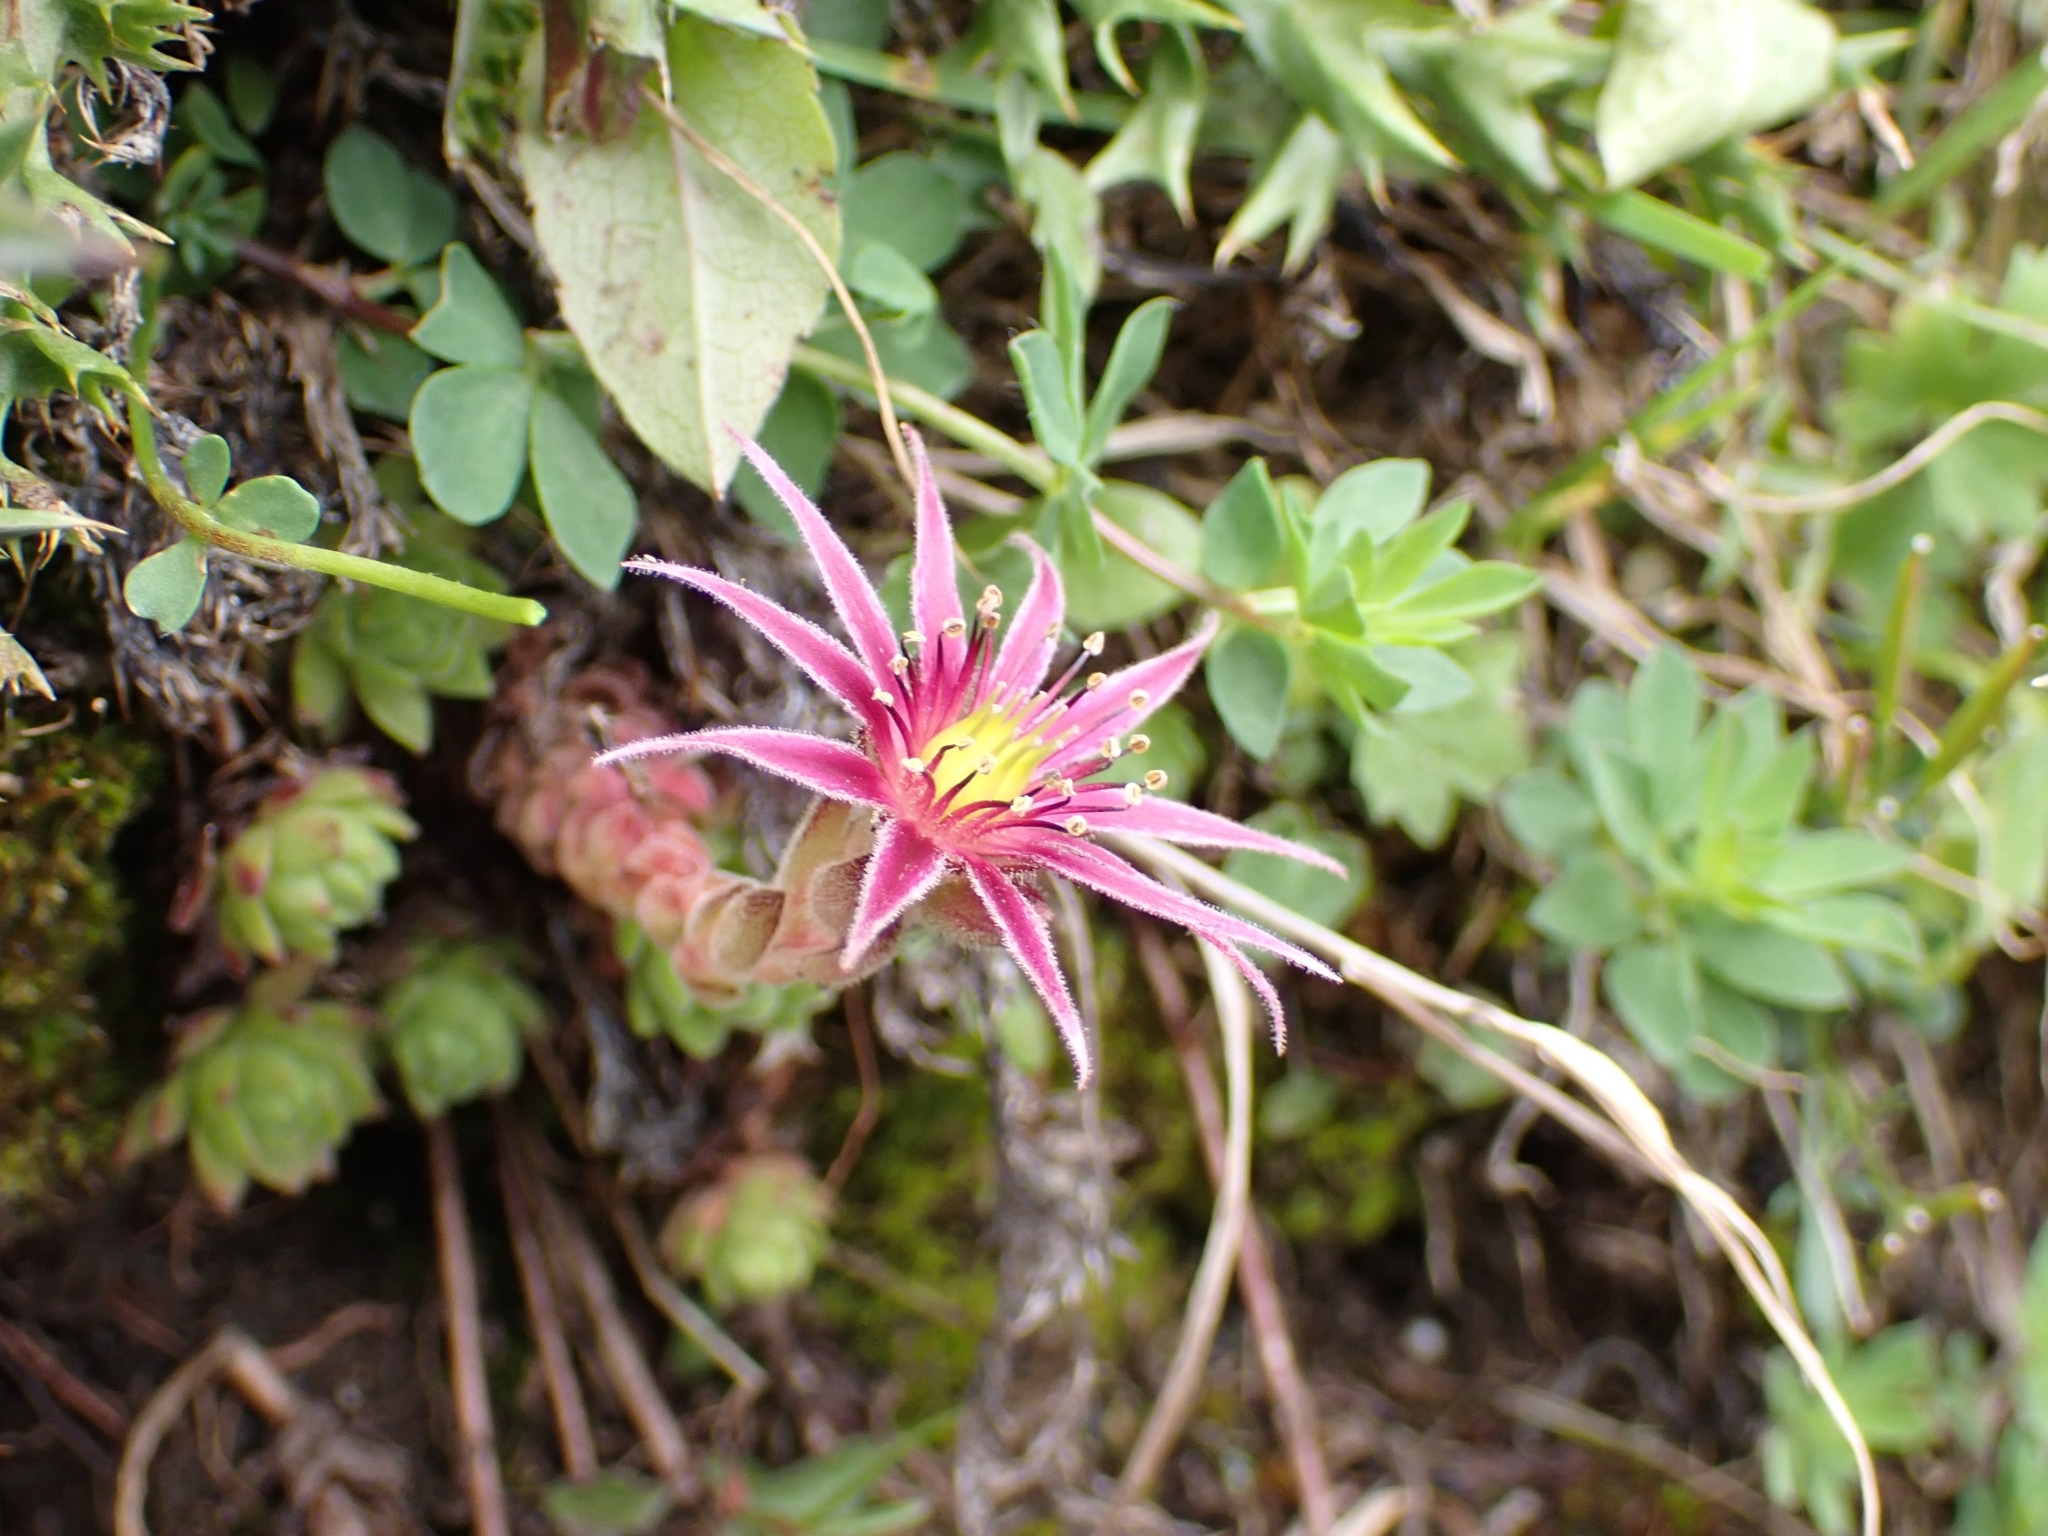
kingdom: Plantae
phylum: Tracheophyta
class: Magnoliopsida
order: Saxifragales
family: Crassulaceae
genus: Sempervivum
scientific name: Sempervivum montanum
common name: Mountain house-leek
